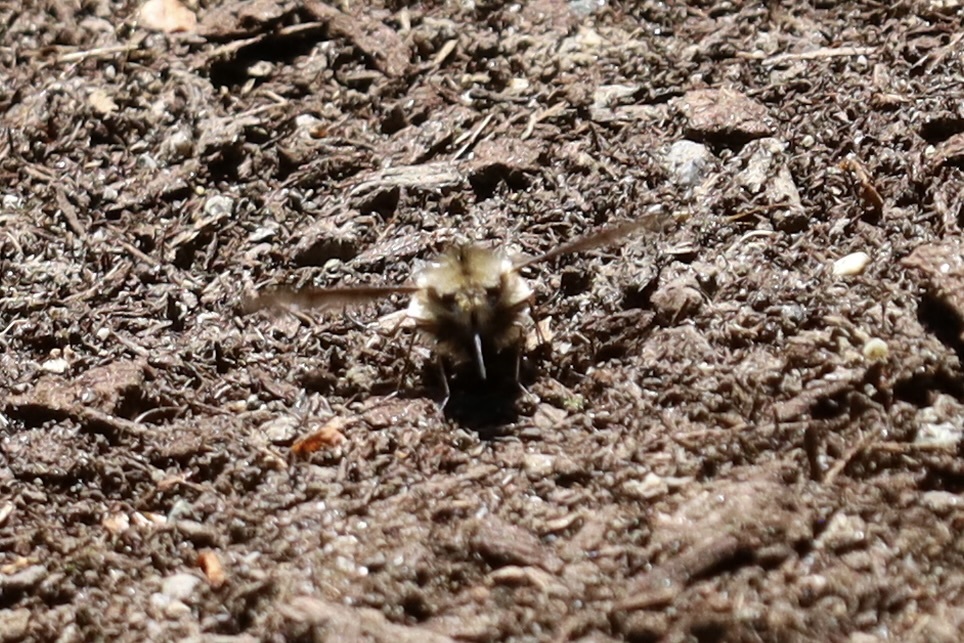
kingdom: Animalia
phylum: Arthropoda
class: Insecta
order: Diptera
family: Bombyliidae
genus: Bombylius
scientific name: Bombylius major
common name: Bee fly
